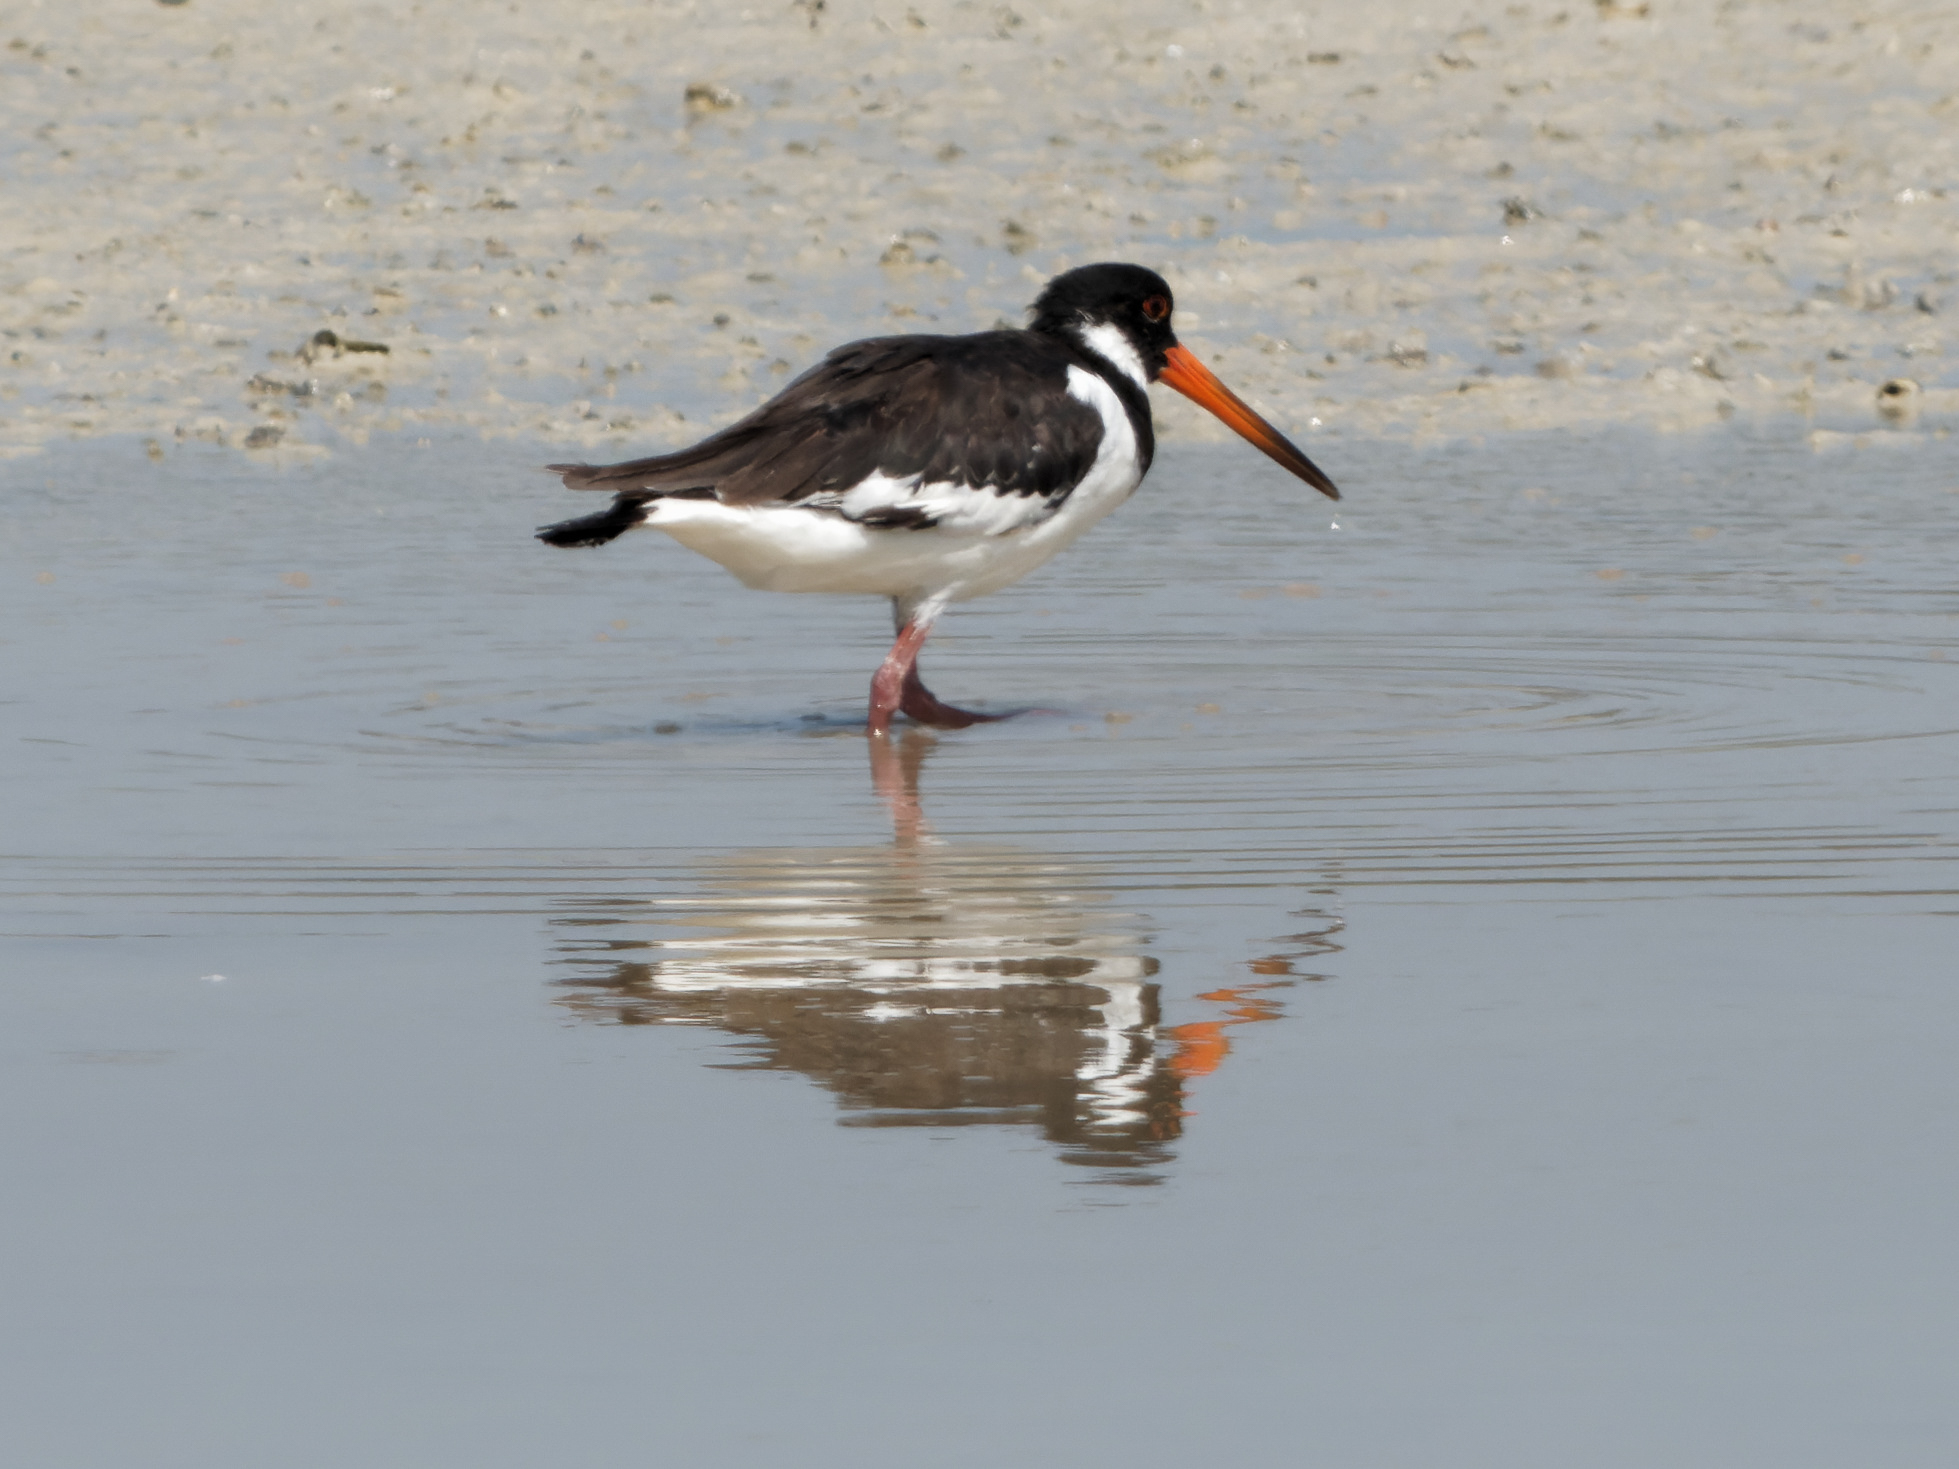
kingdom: Animalia
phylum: Chordata
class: Aves
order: Charadriiformes
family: Haematopodidae
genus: Haematopus
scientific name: Haematopus ostralegus
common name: Eurasian oystercatcher
